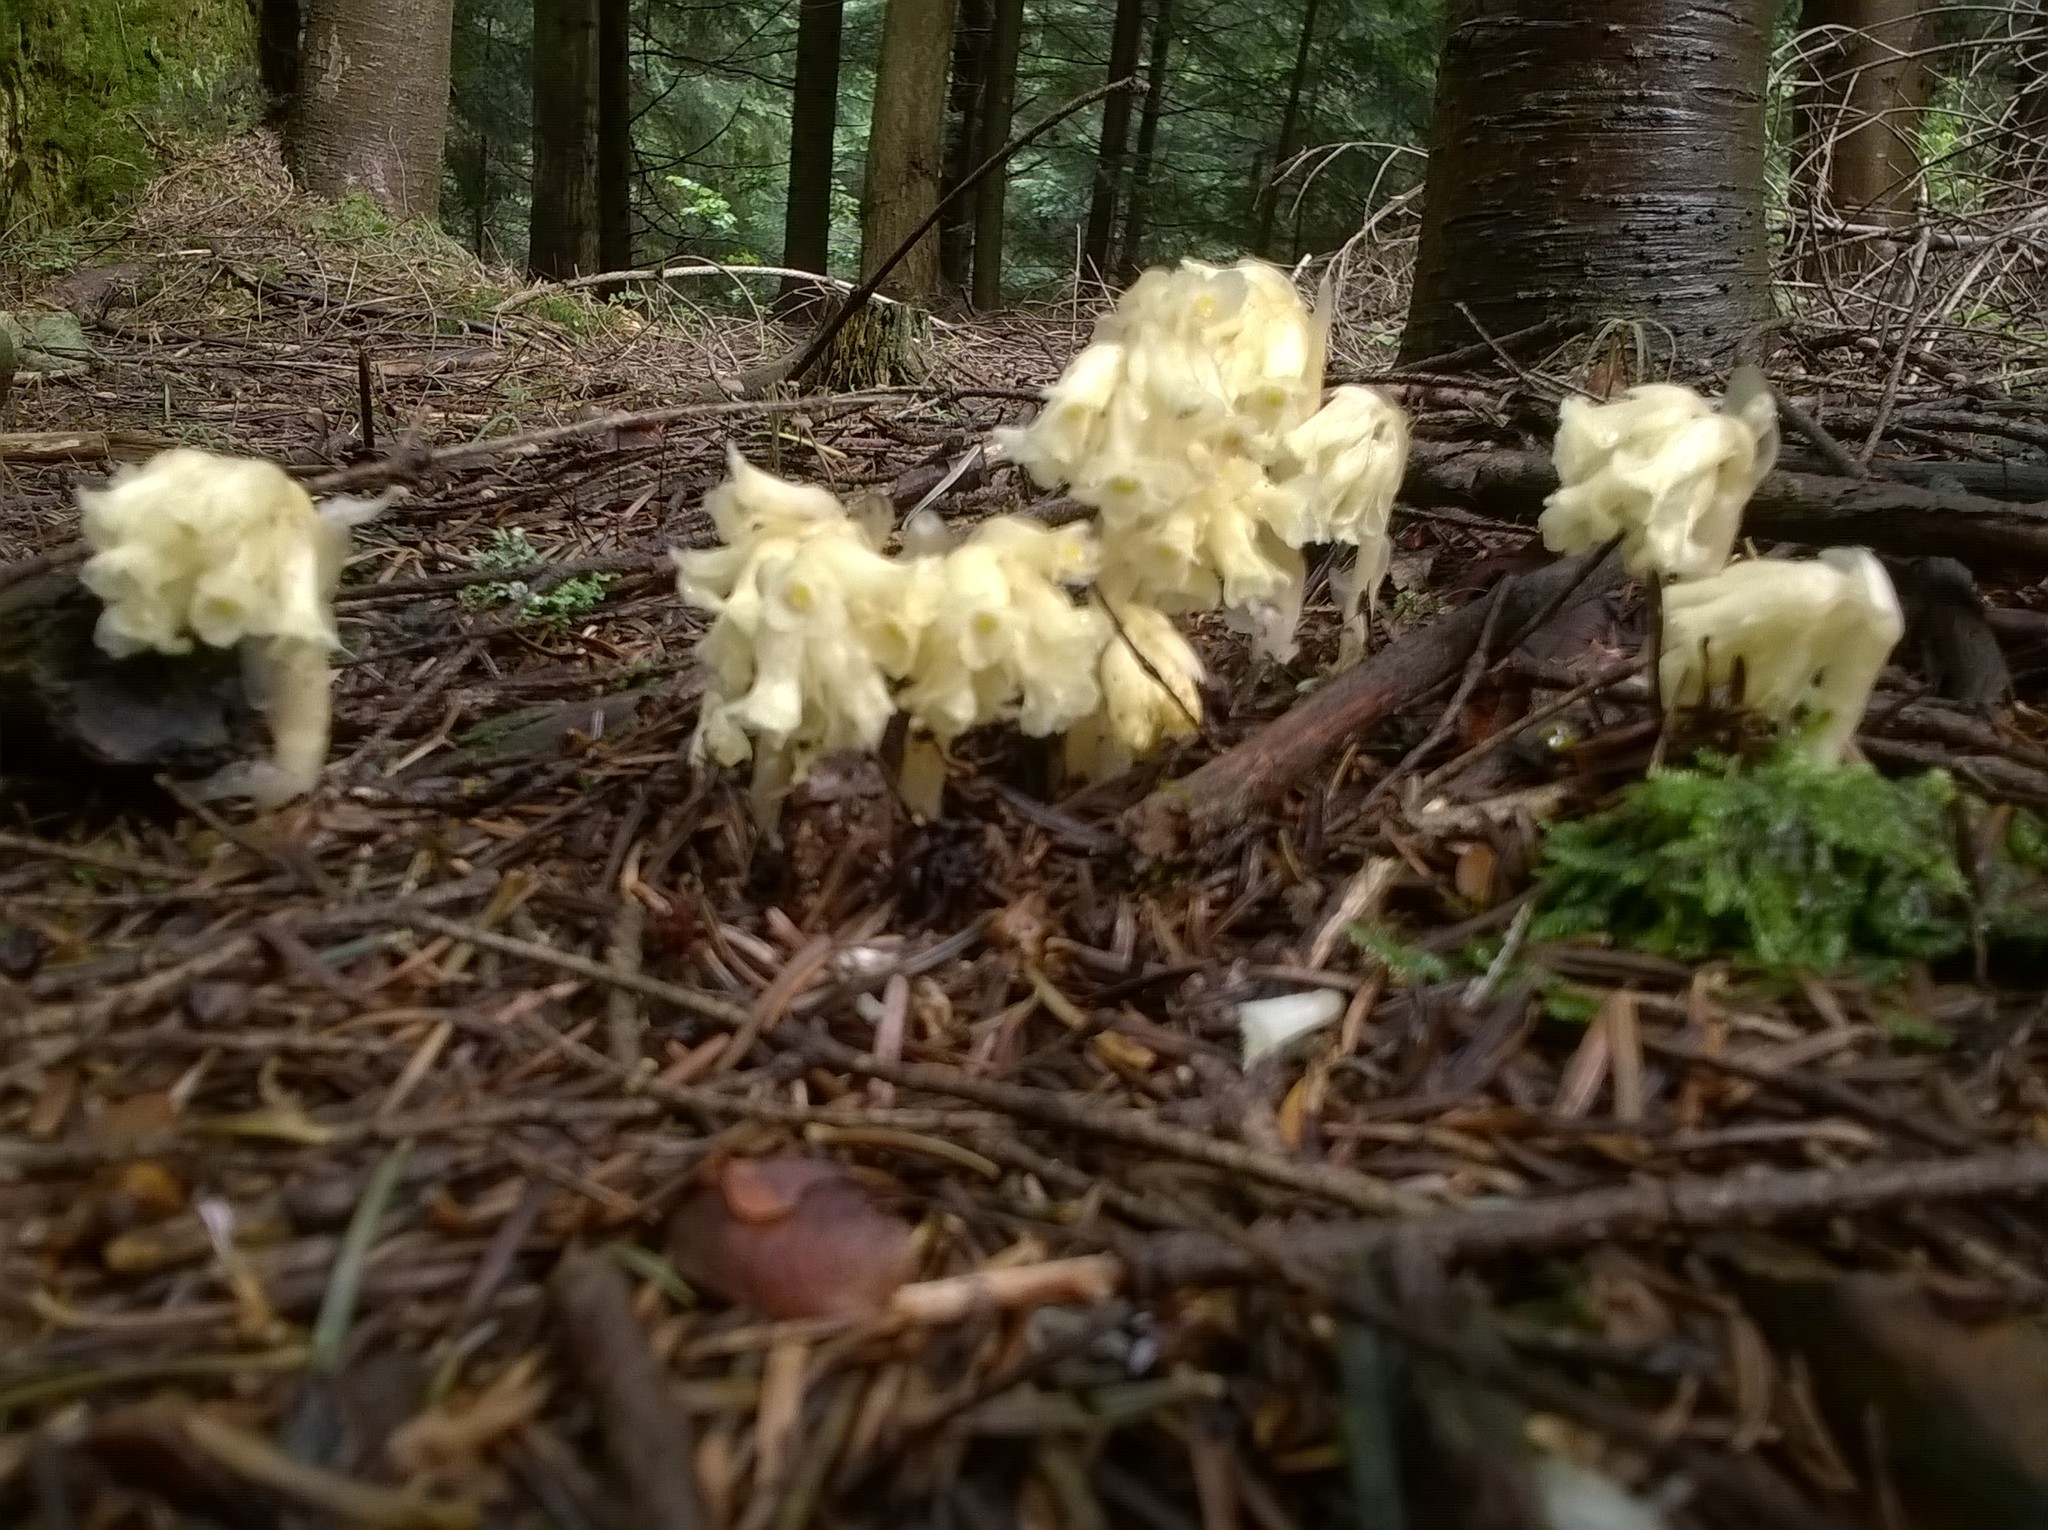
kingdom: Plantae
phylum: Tracheophyta
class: Magnoliopsida
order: Ericales
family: Ericaceae
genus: Hypopitys
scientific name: Hypopitys monotropa
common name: Yellow bird's-nest
